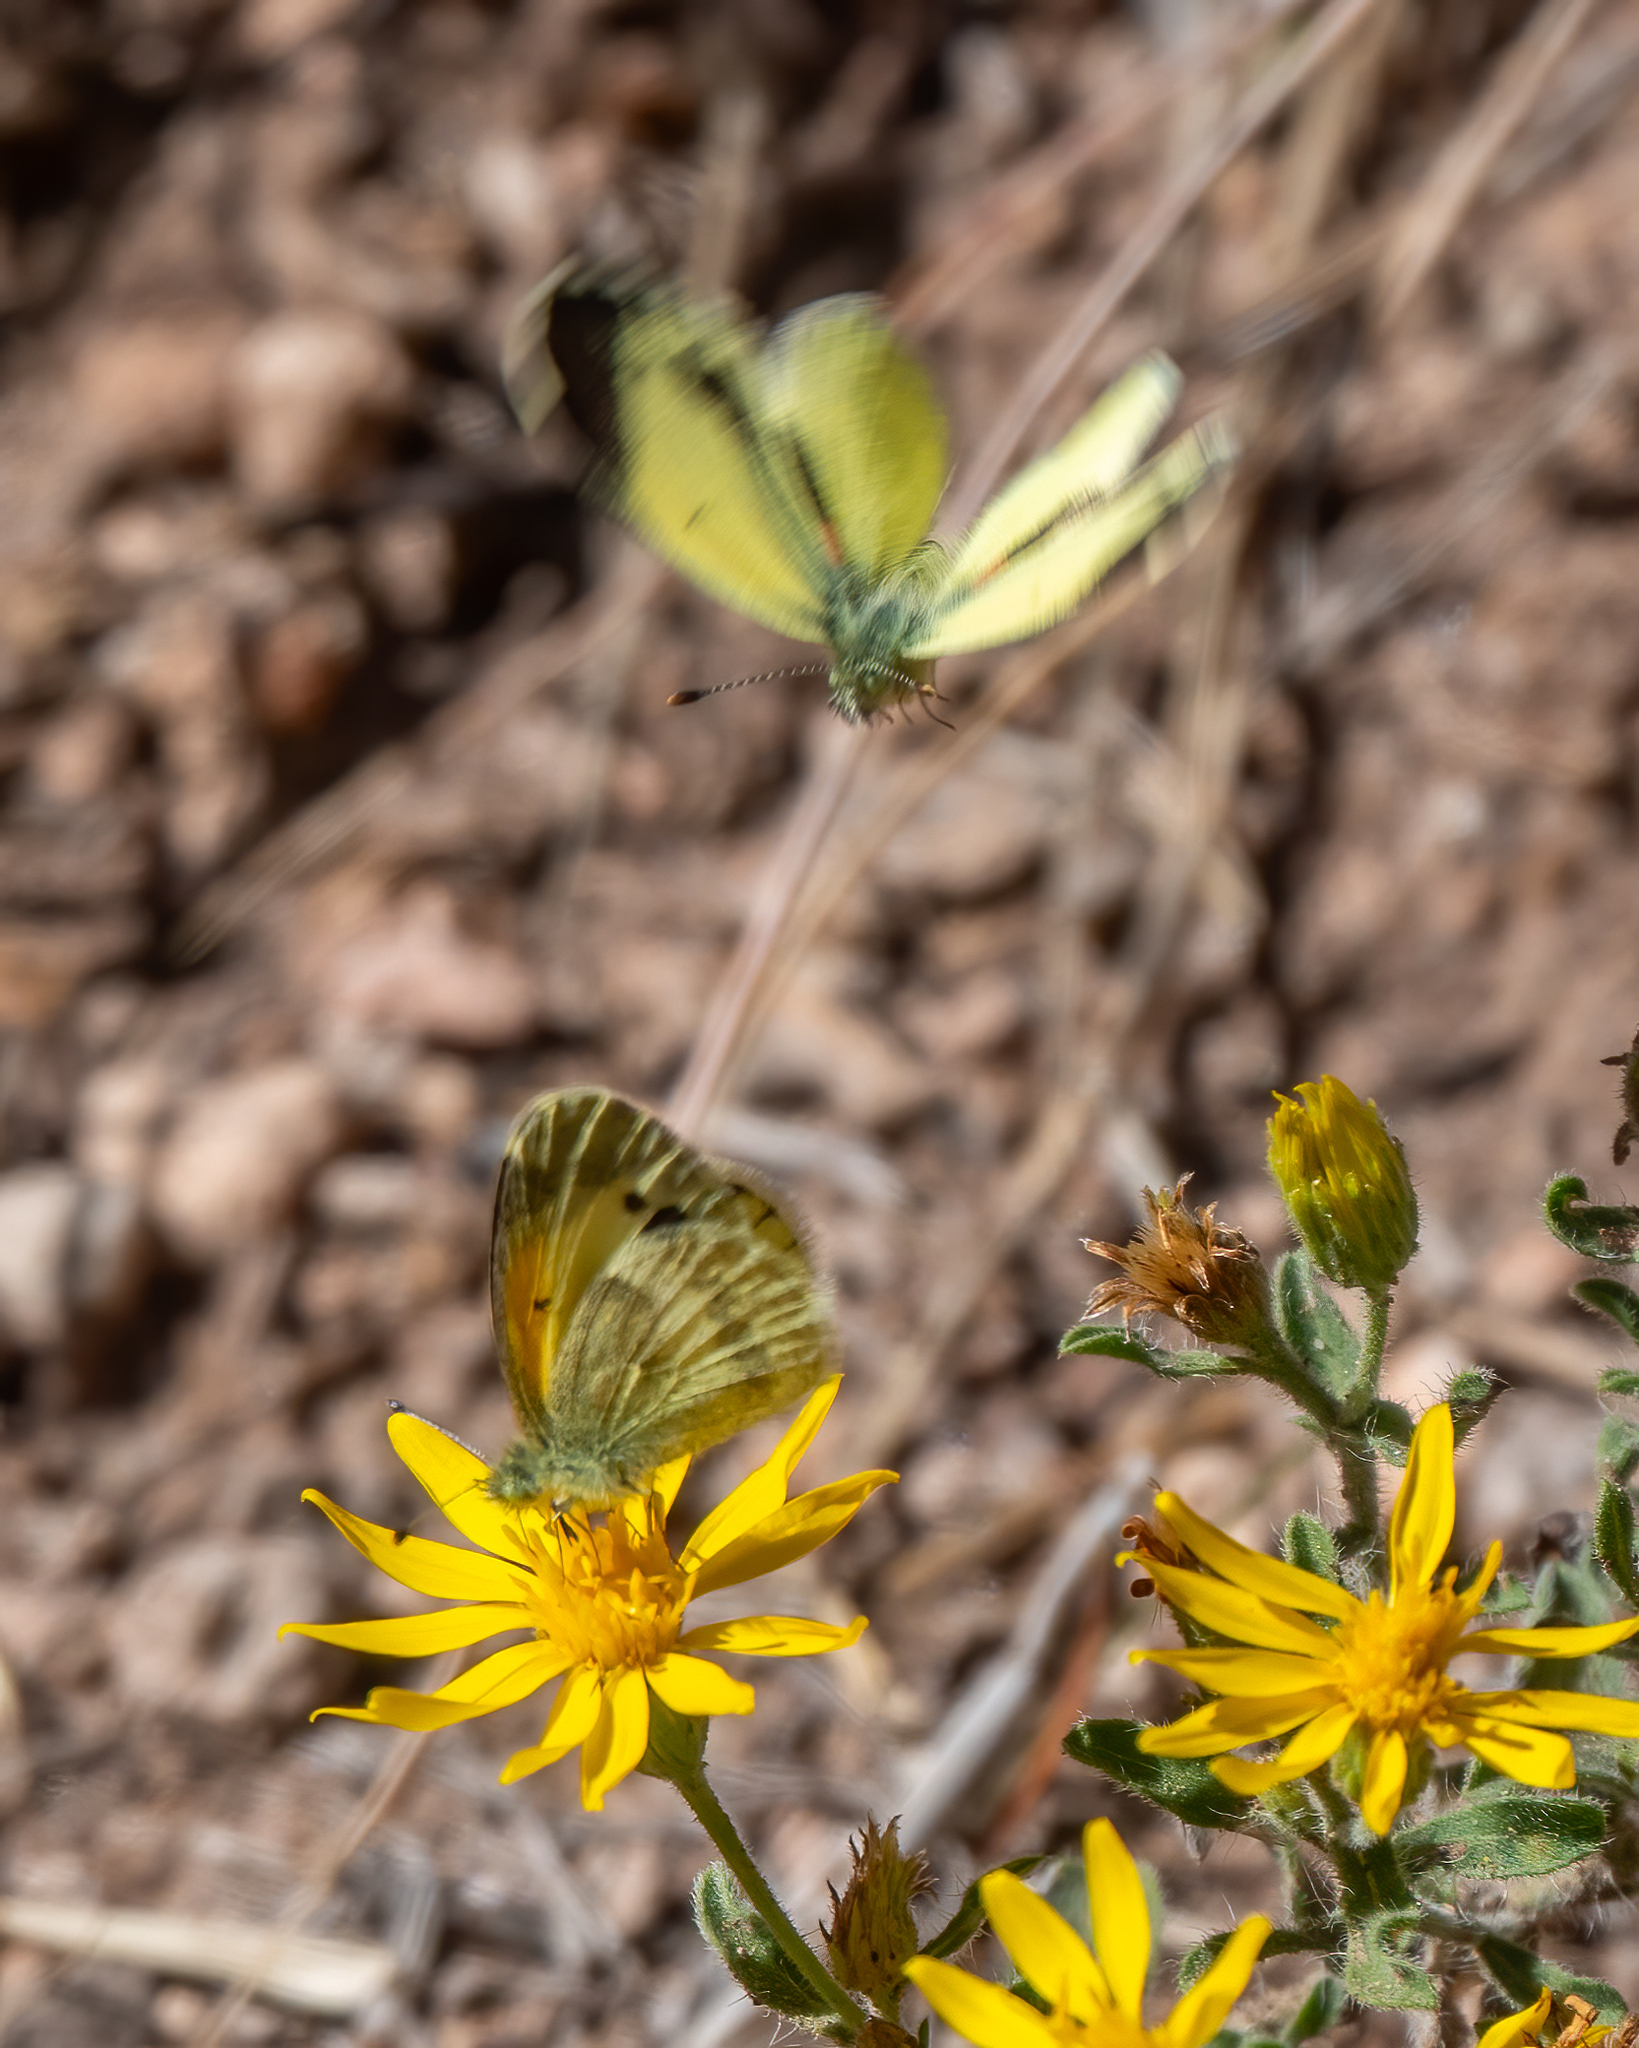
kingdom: Animalia
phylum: Arthropoda
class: Insecta
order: Lepidoptera
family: Pieridae
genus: Nathalis
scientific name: Nathalis iole
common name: Dainty sulphur
